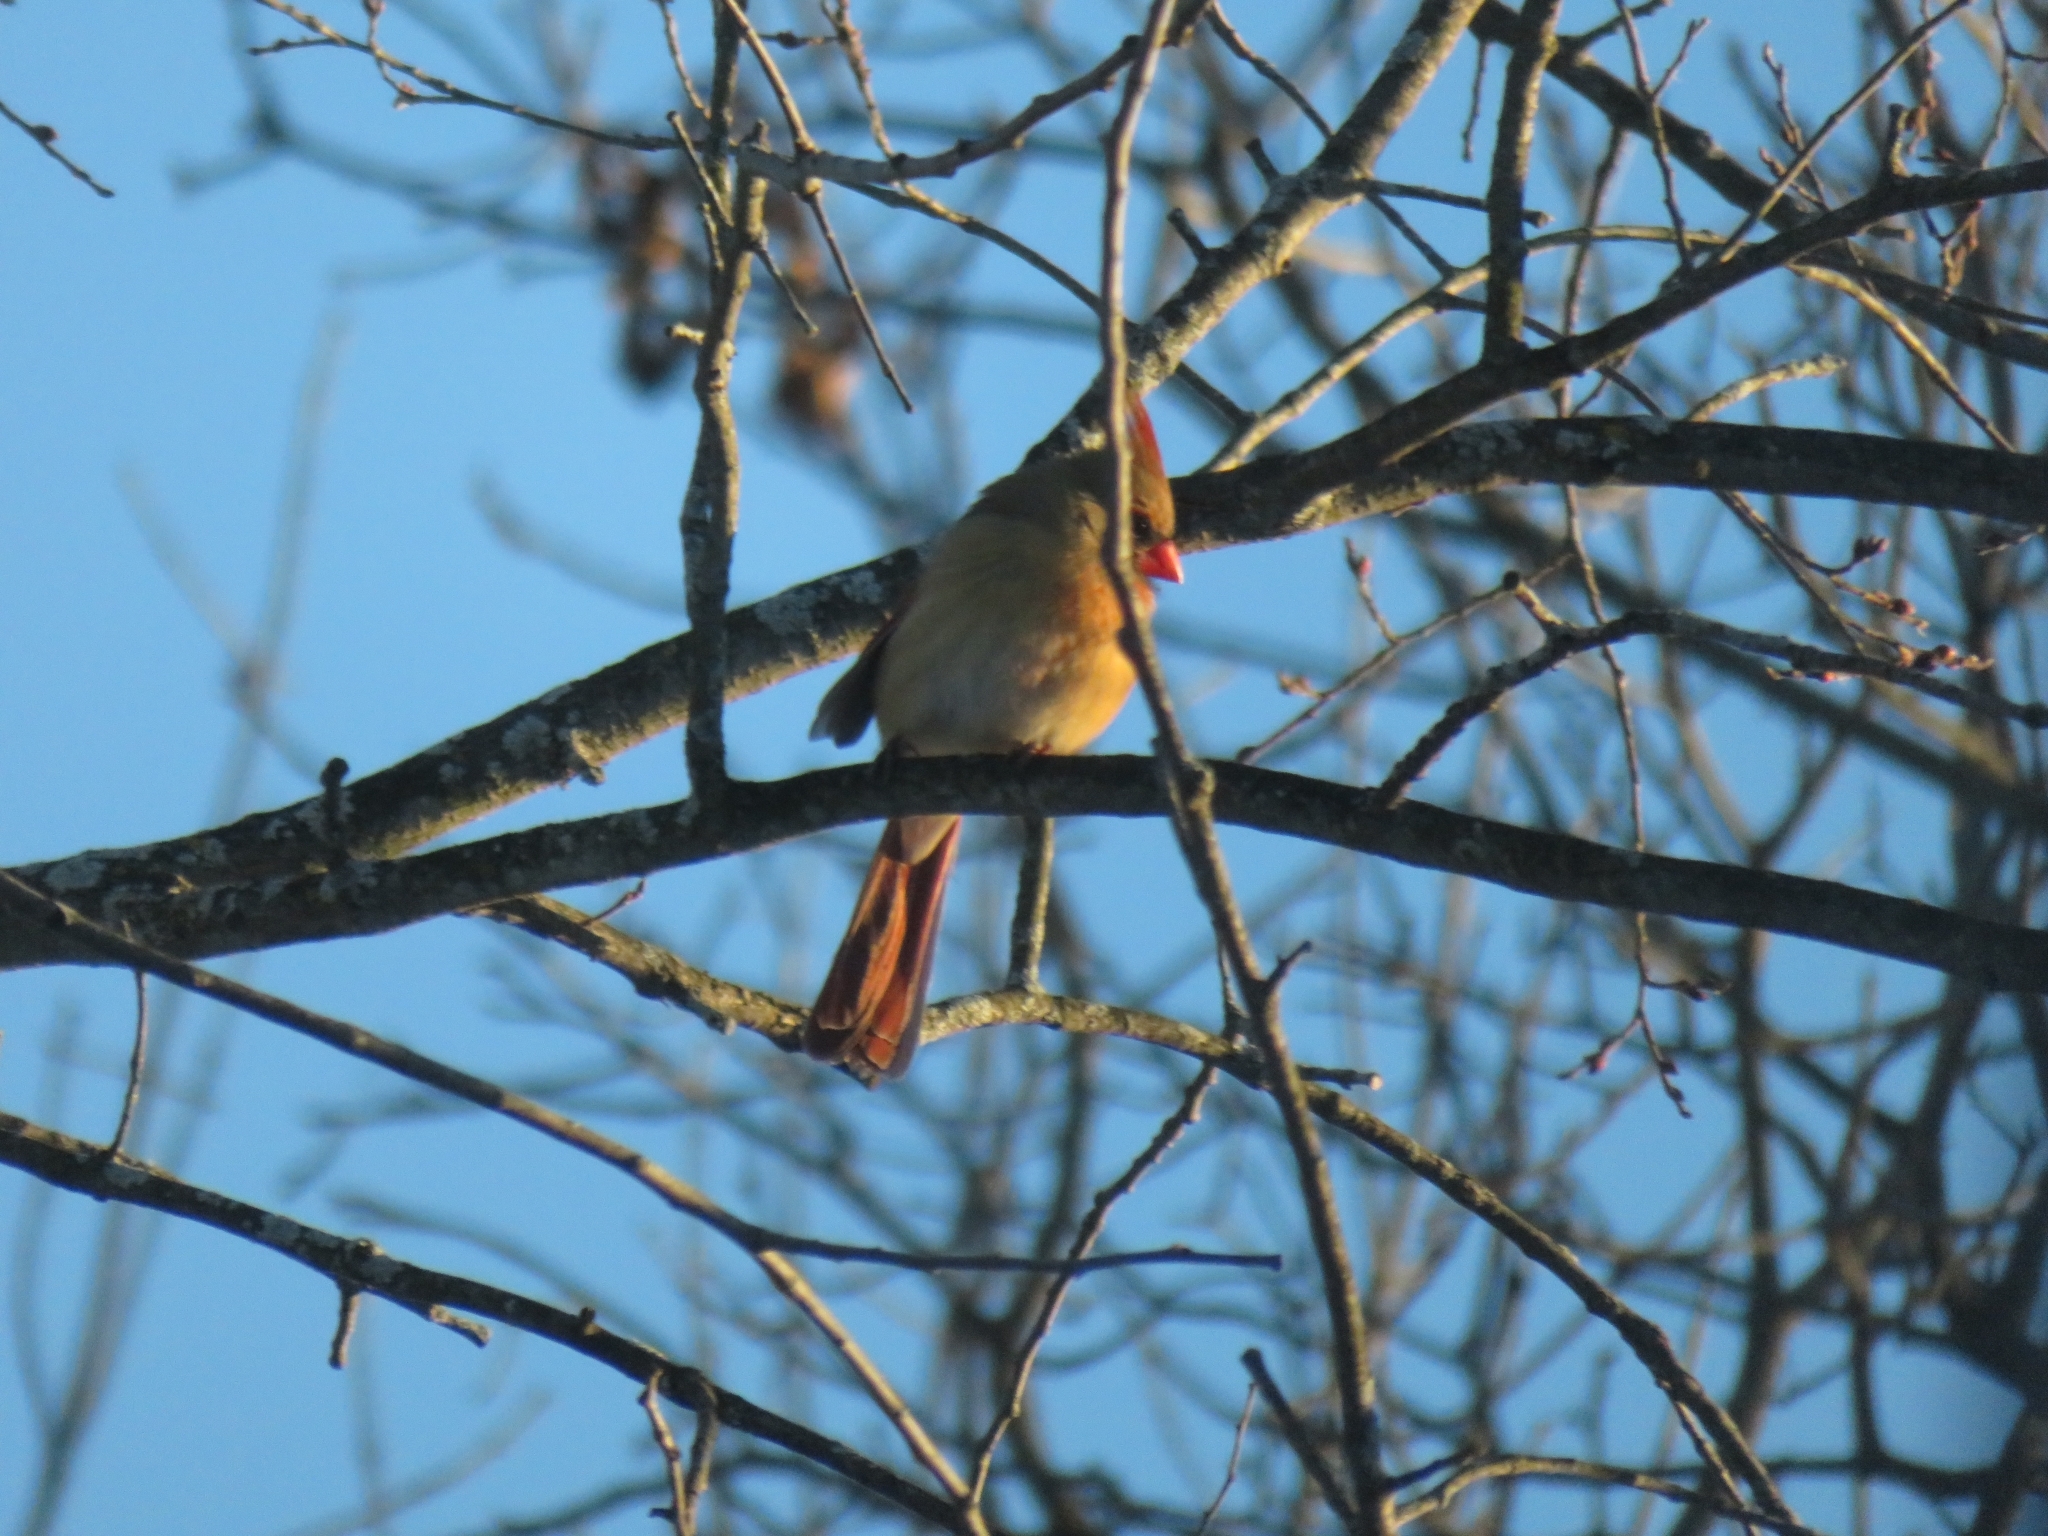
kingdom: Animalia
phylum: Chordata
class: Aves
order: Passeriformes
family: Cardinalidae
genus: Cardinalis
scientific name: Cardinalis cardinalis
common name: Northern cardinal
